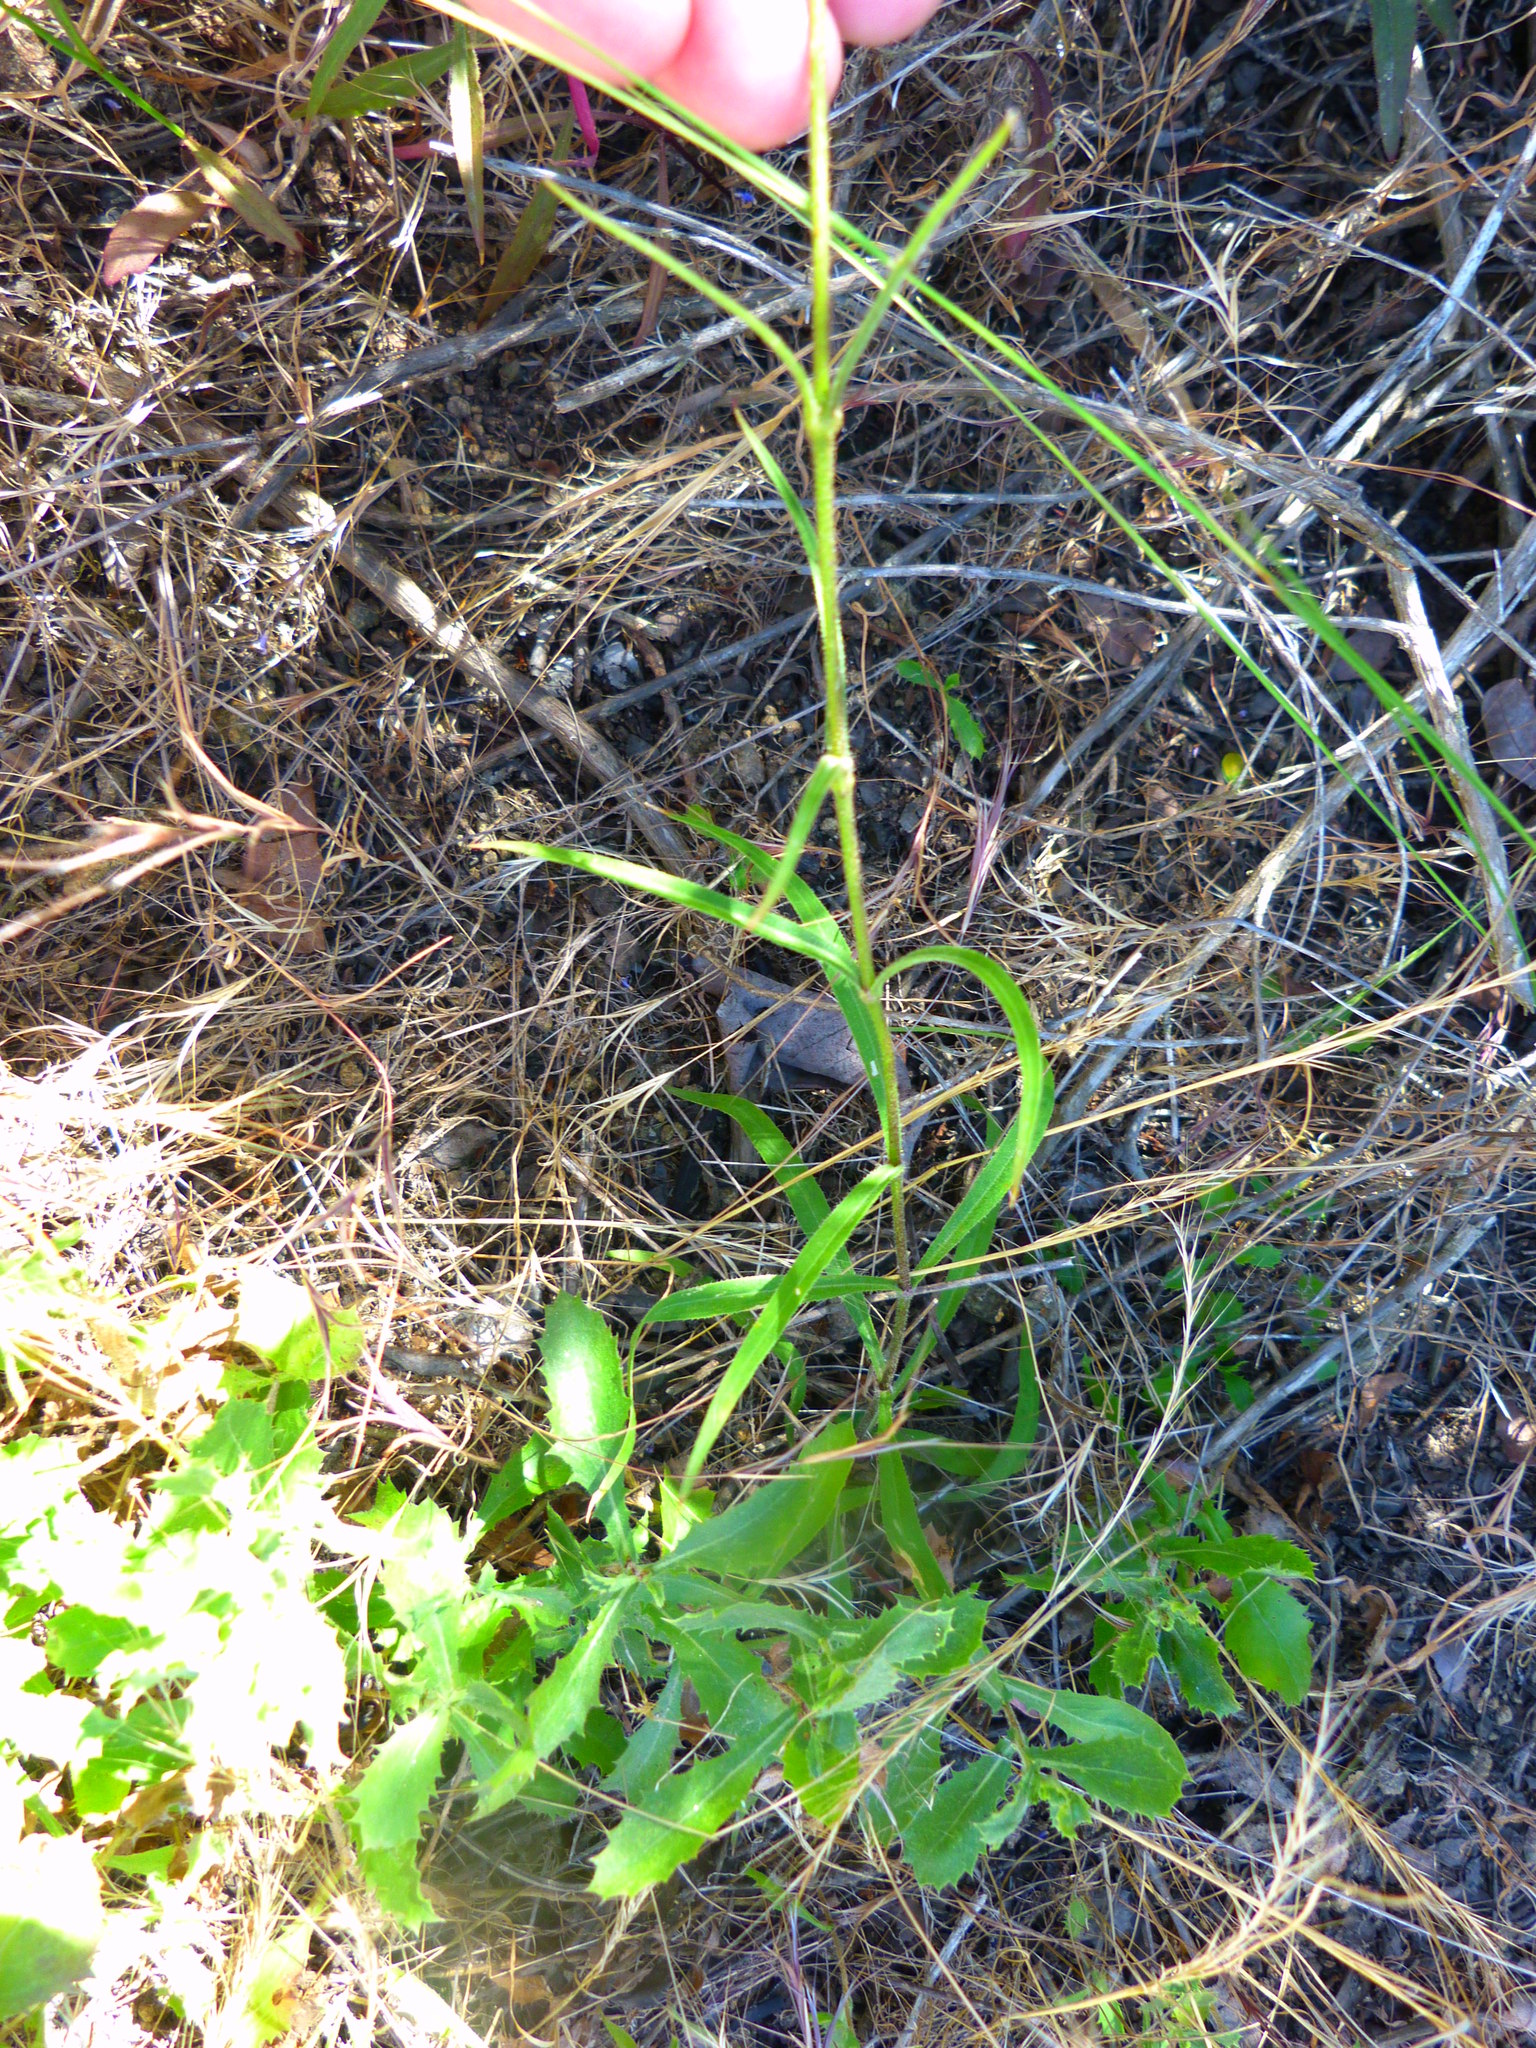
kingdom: Plantae
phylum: Tracheophyta
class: Magnoliopsida
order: Caryophyllales
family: Caryophyllaceae
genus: Silene
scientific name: Silene laciniata
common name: Indian-pink
